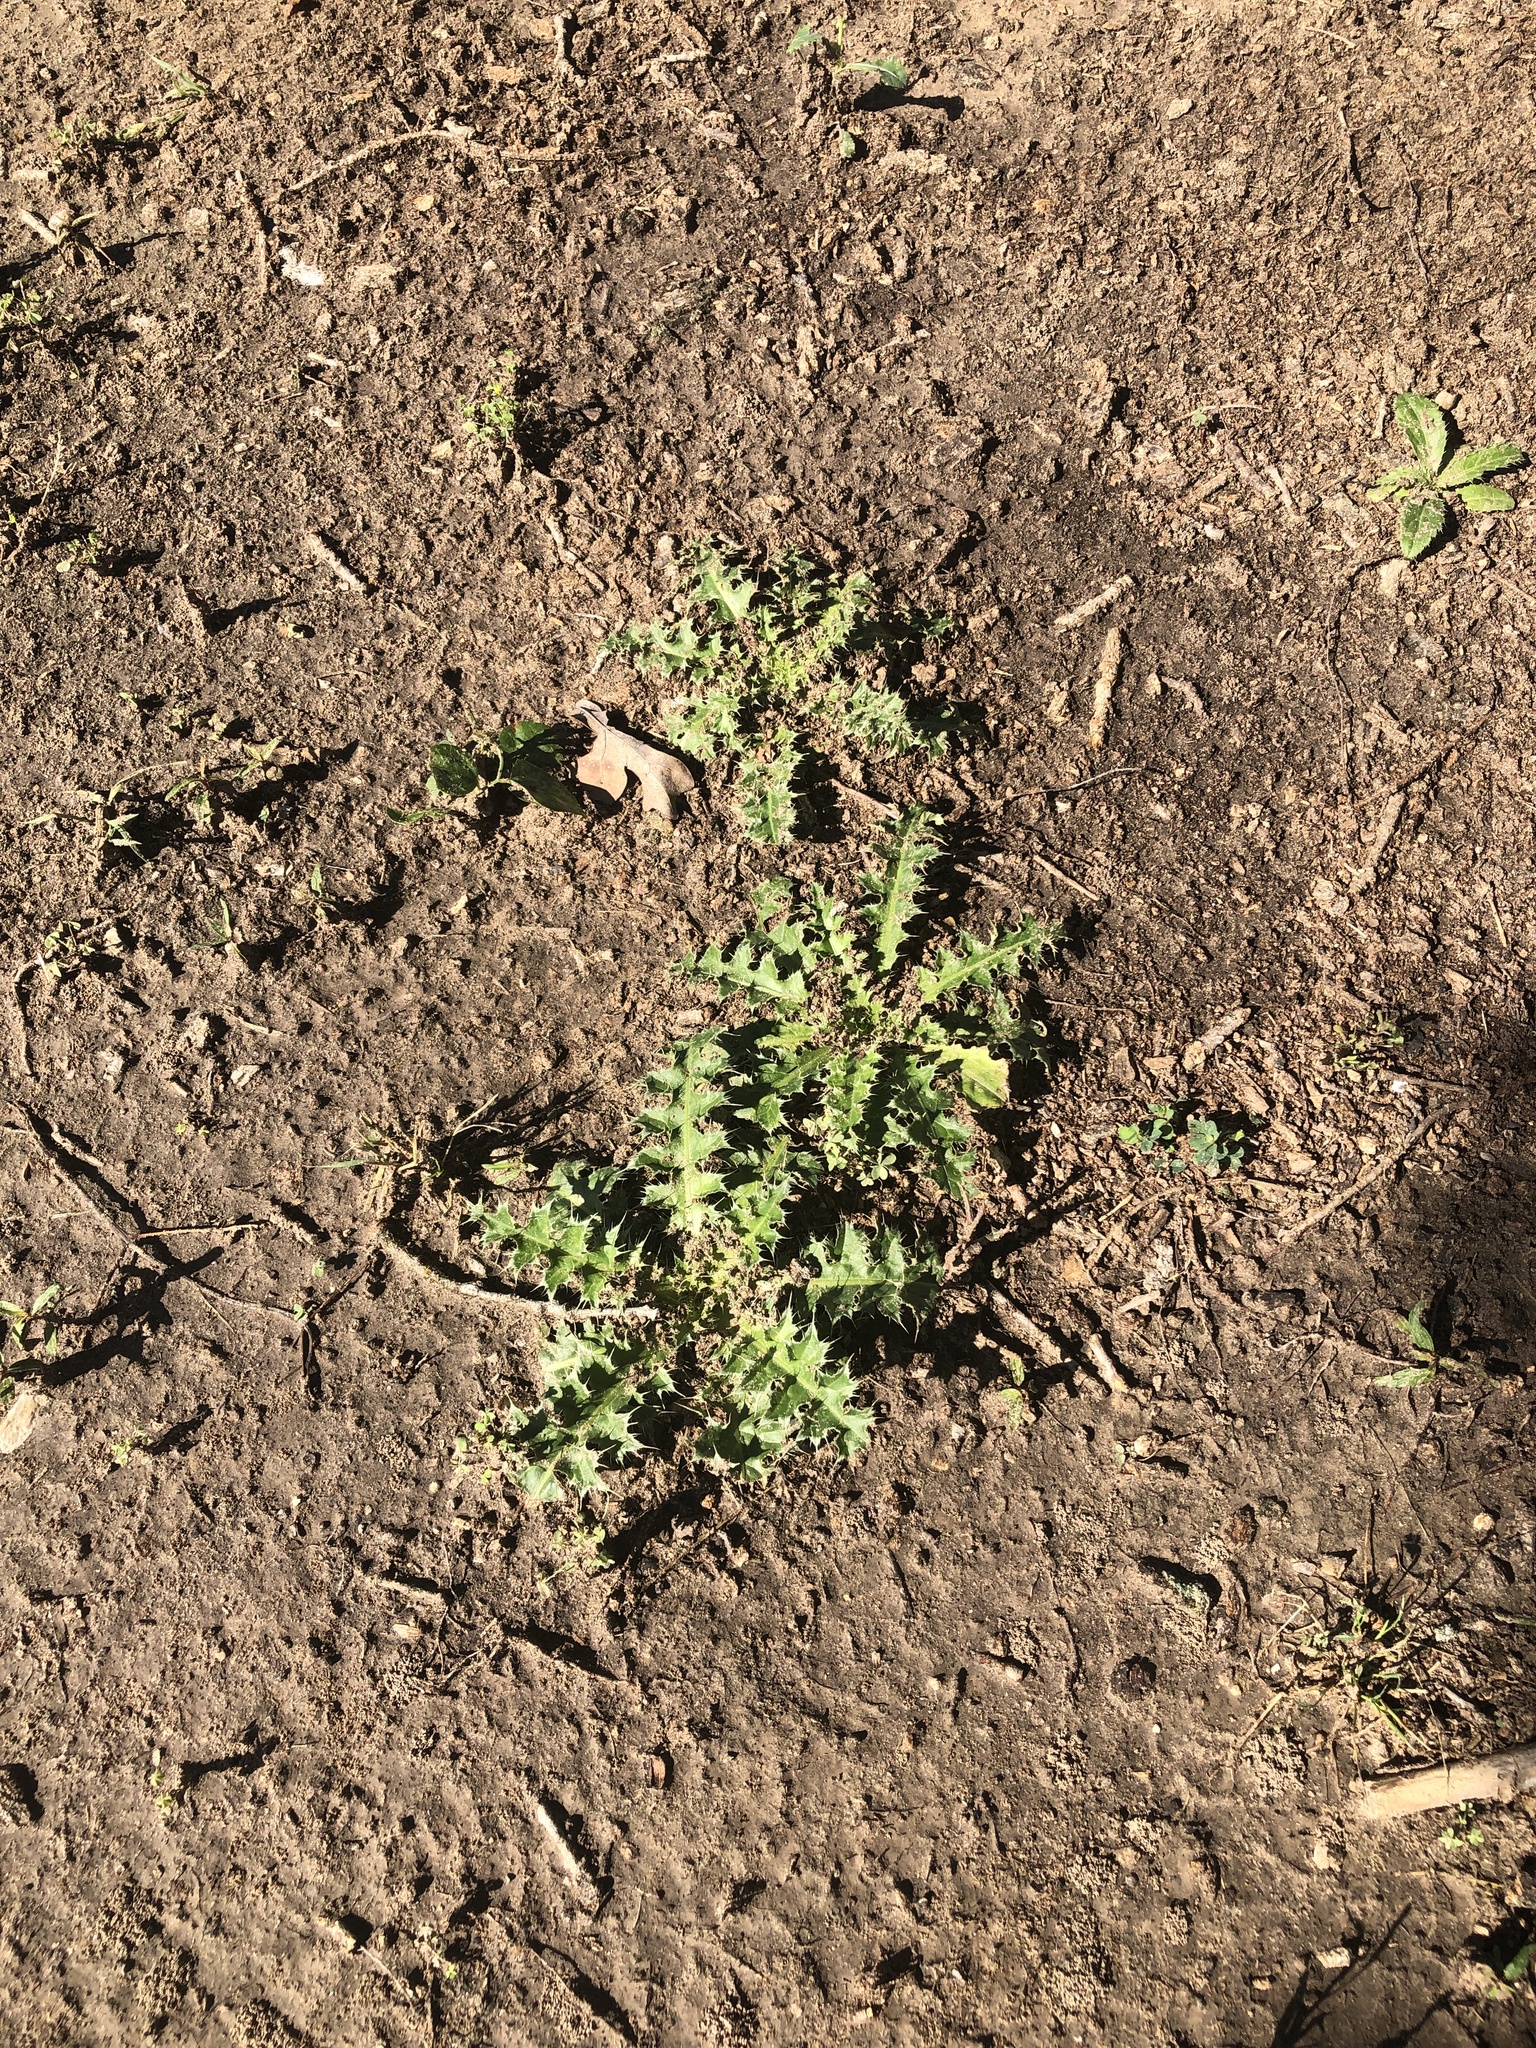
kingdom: Plantae
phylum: Tracheophyta
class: Magnoliopsida
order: Asterales
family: Asteraceae
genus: Carduus
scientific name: Carduus nutans
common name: Musk thistle
